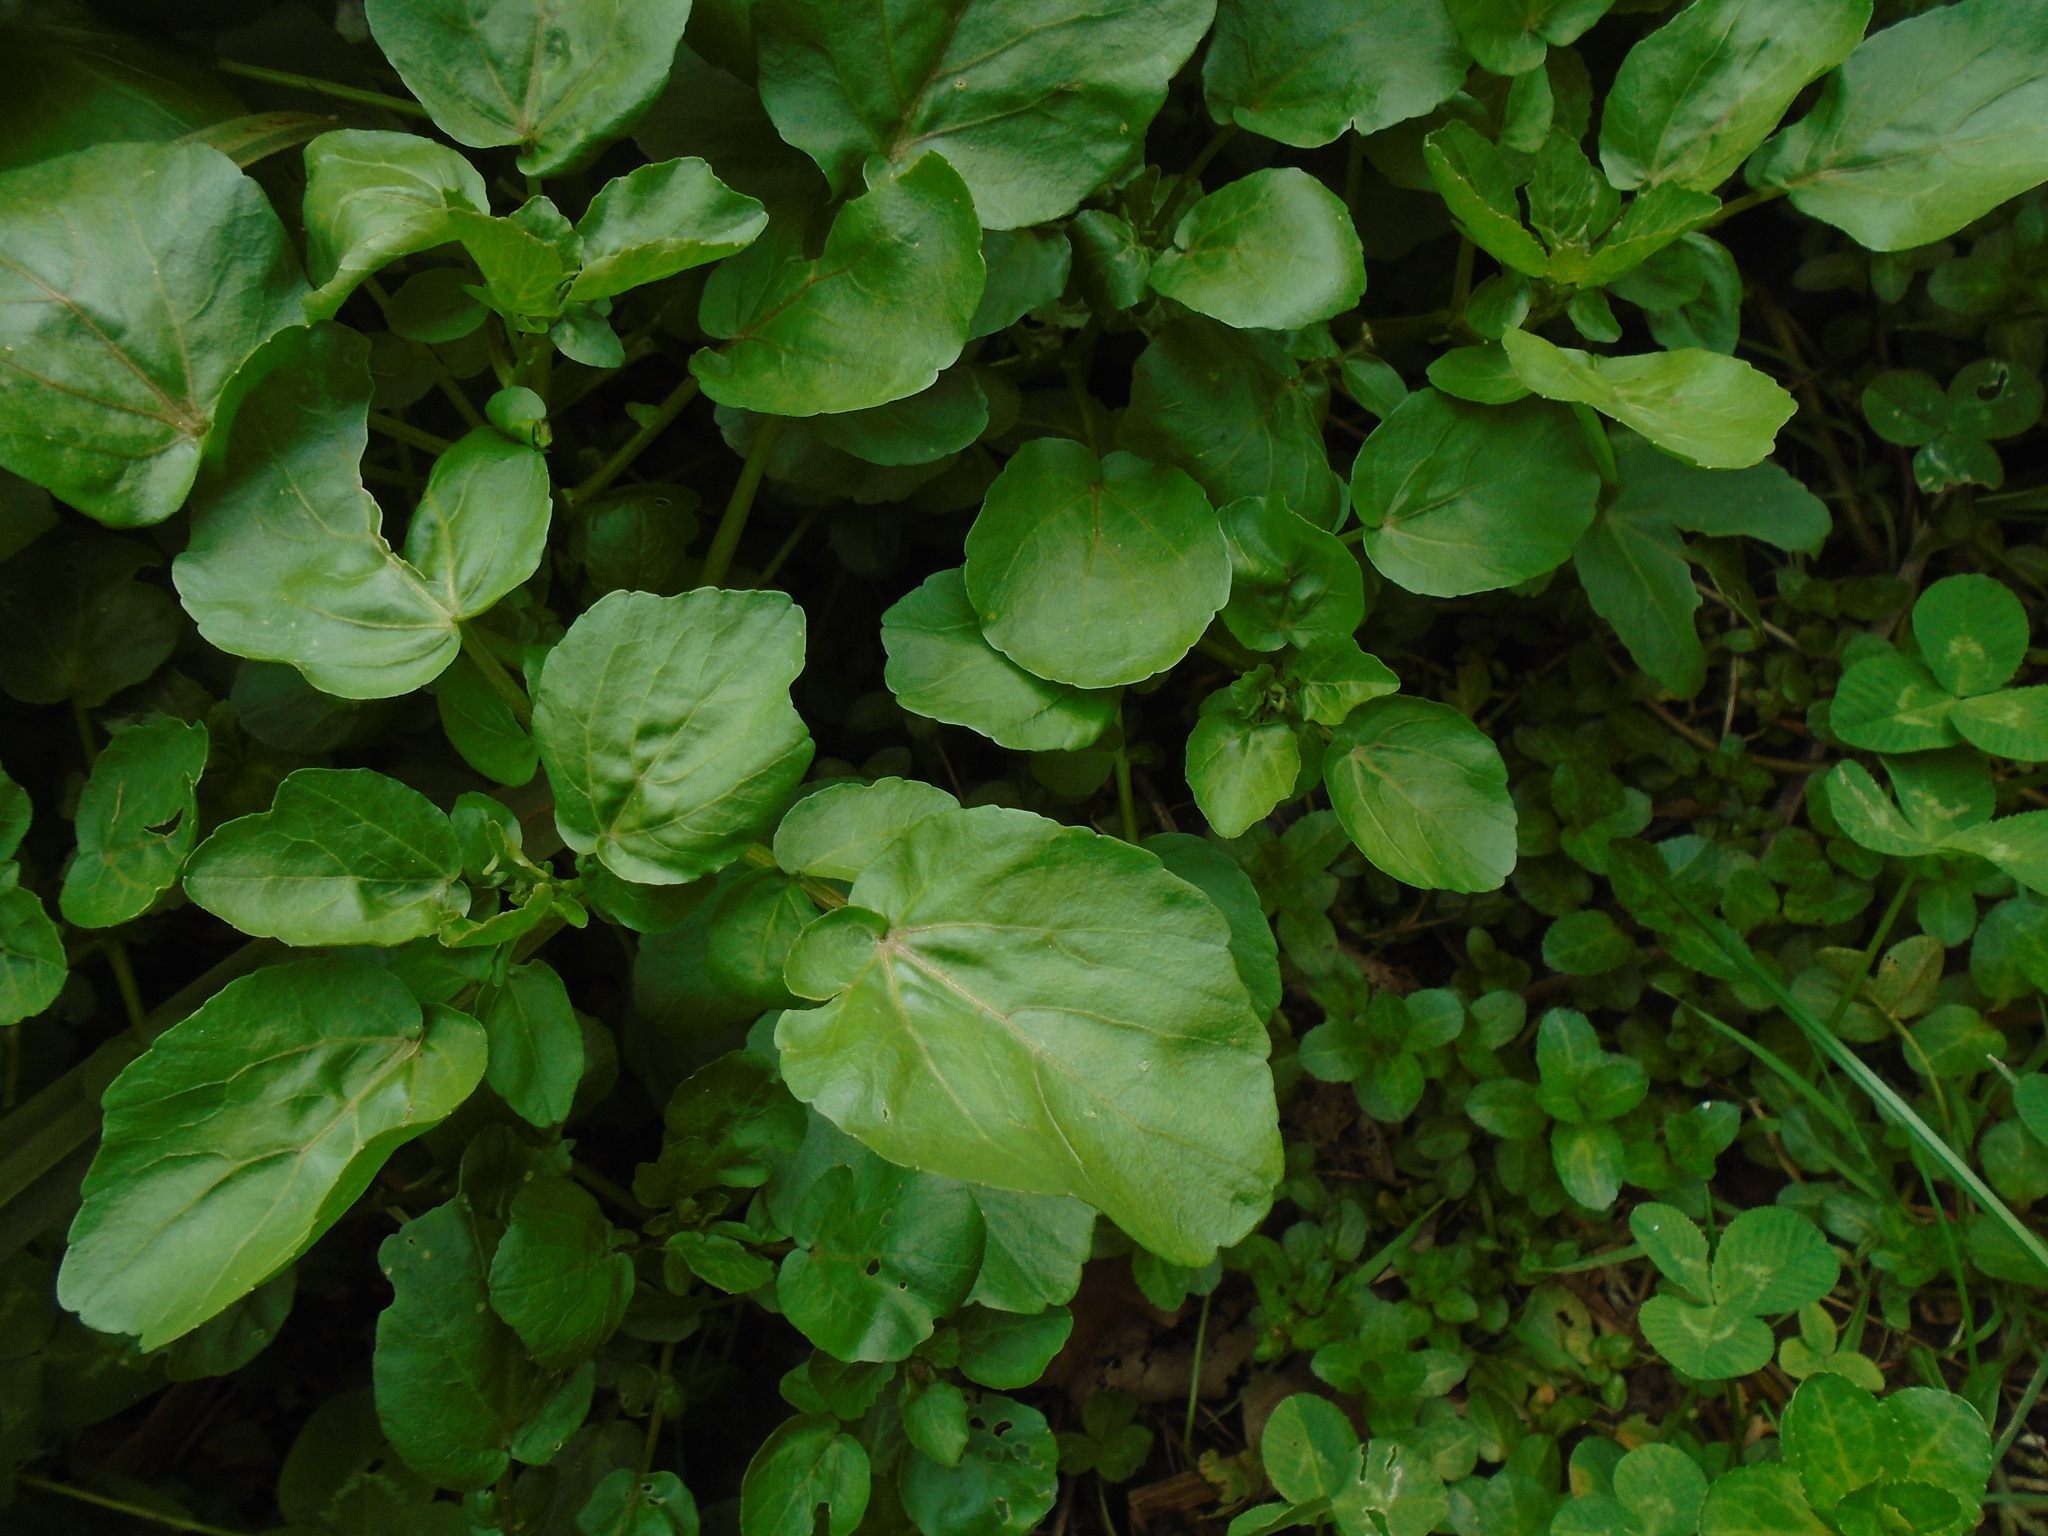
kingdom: Plantae
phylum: Tracheophyta
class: Magnoliopsida
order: Brassicales
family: Brassicaceae
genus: Nasturtium
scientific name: Nasturtium officinale
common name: Watercress
